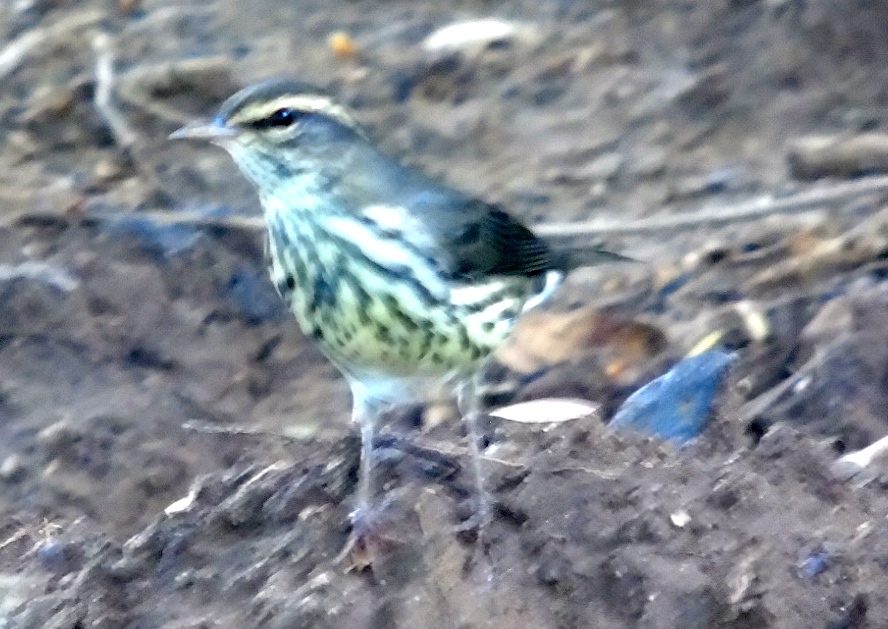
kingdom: Animalia
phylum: Chordata
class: Aves
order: Passeriformes
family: Parulidae
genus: Parkesia
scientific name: Parkesia noveboracensis
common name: Northern waterthrush
